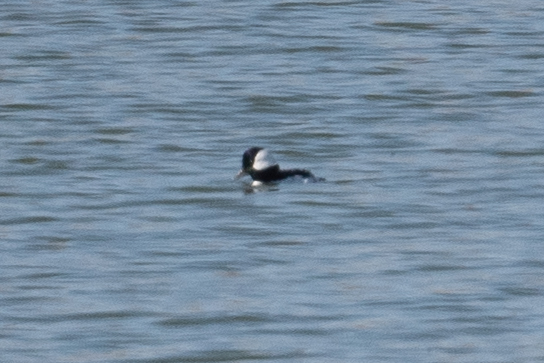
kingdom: Animalia
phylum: Chordata
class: Aves
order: Anseriformes
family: Anatidae
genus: Bucephala
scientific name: Bucephala albeola
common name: Bufflehead
